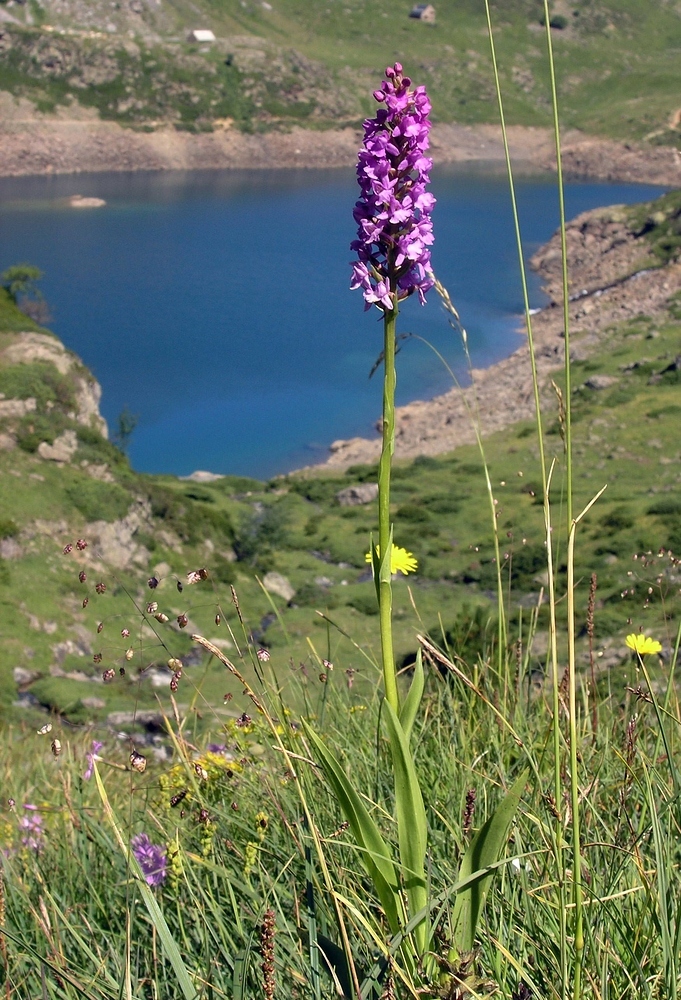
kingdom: Plantae
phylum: Tracheophyta
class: Liliopsida
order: Asparagales
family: Orchidaceae
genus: Gymnadenia
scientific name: Gymnadenia conopsea
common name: Fragrant orchid
